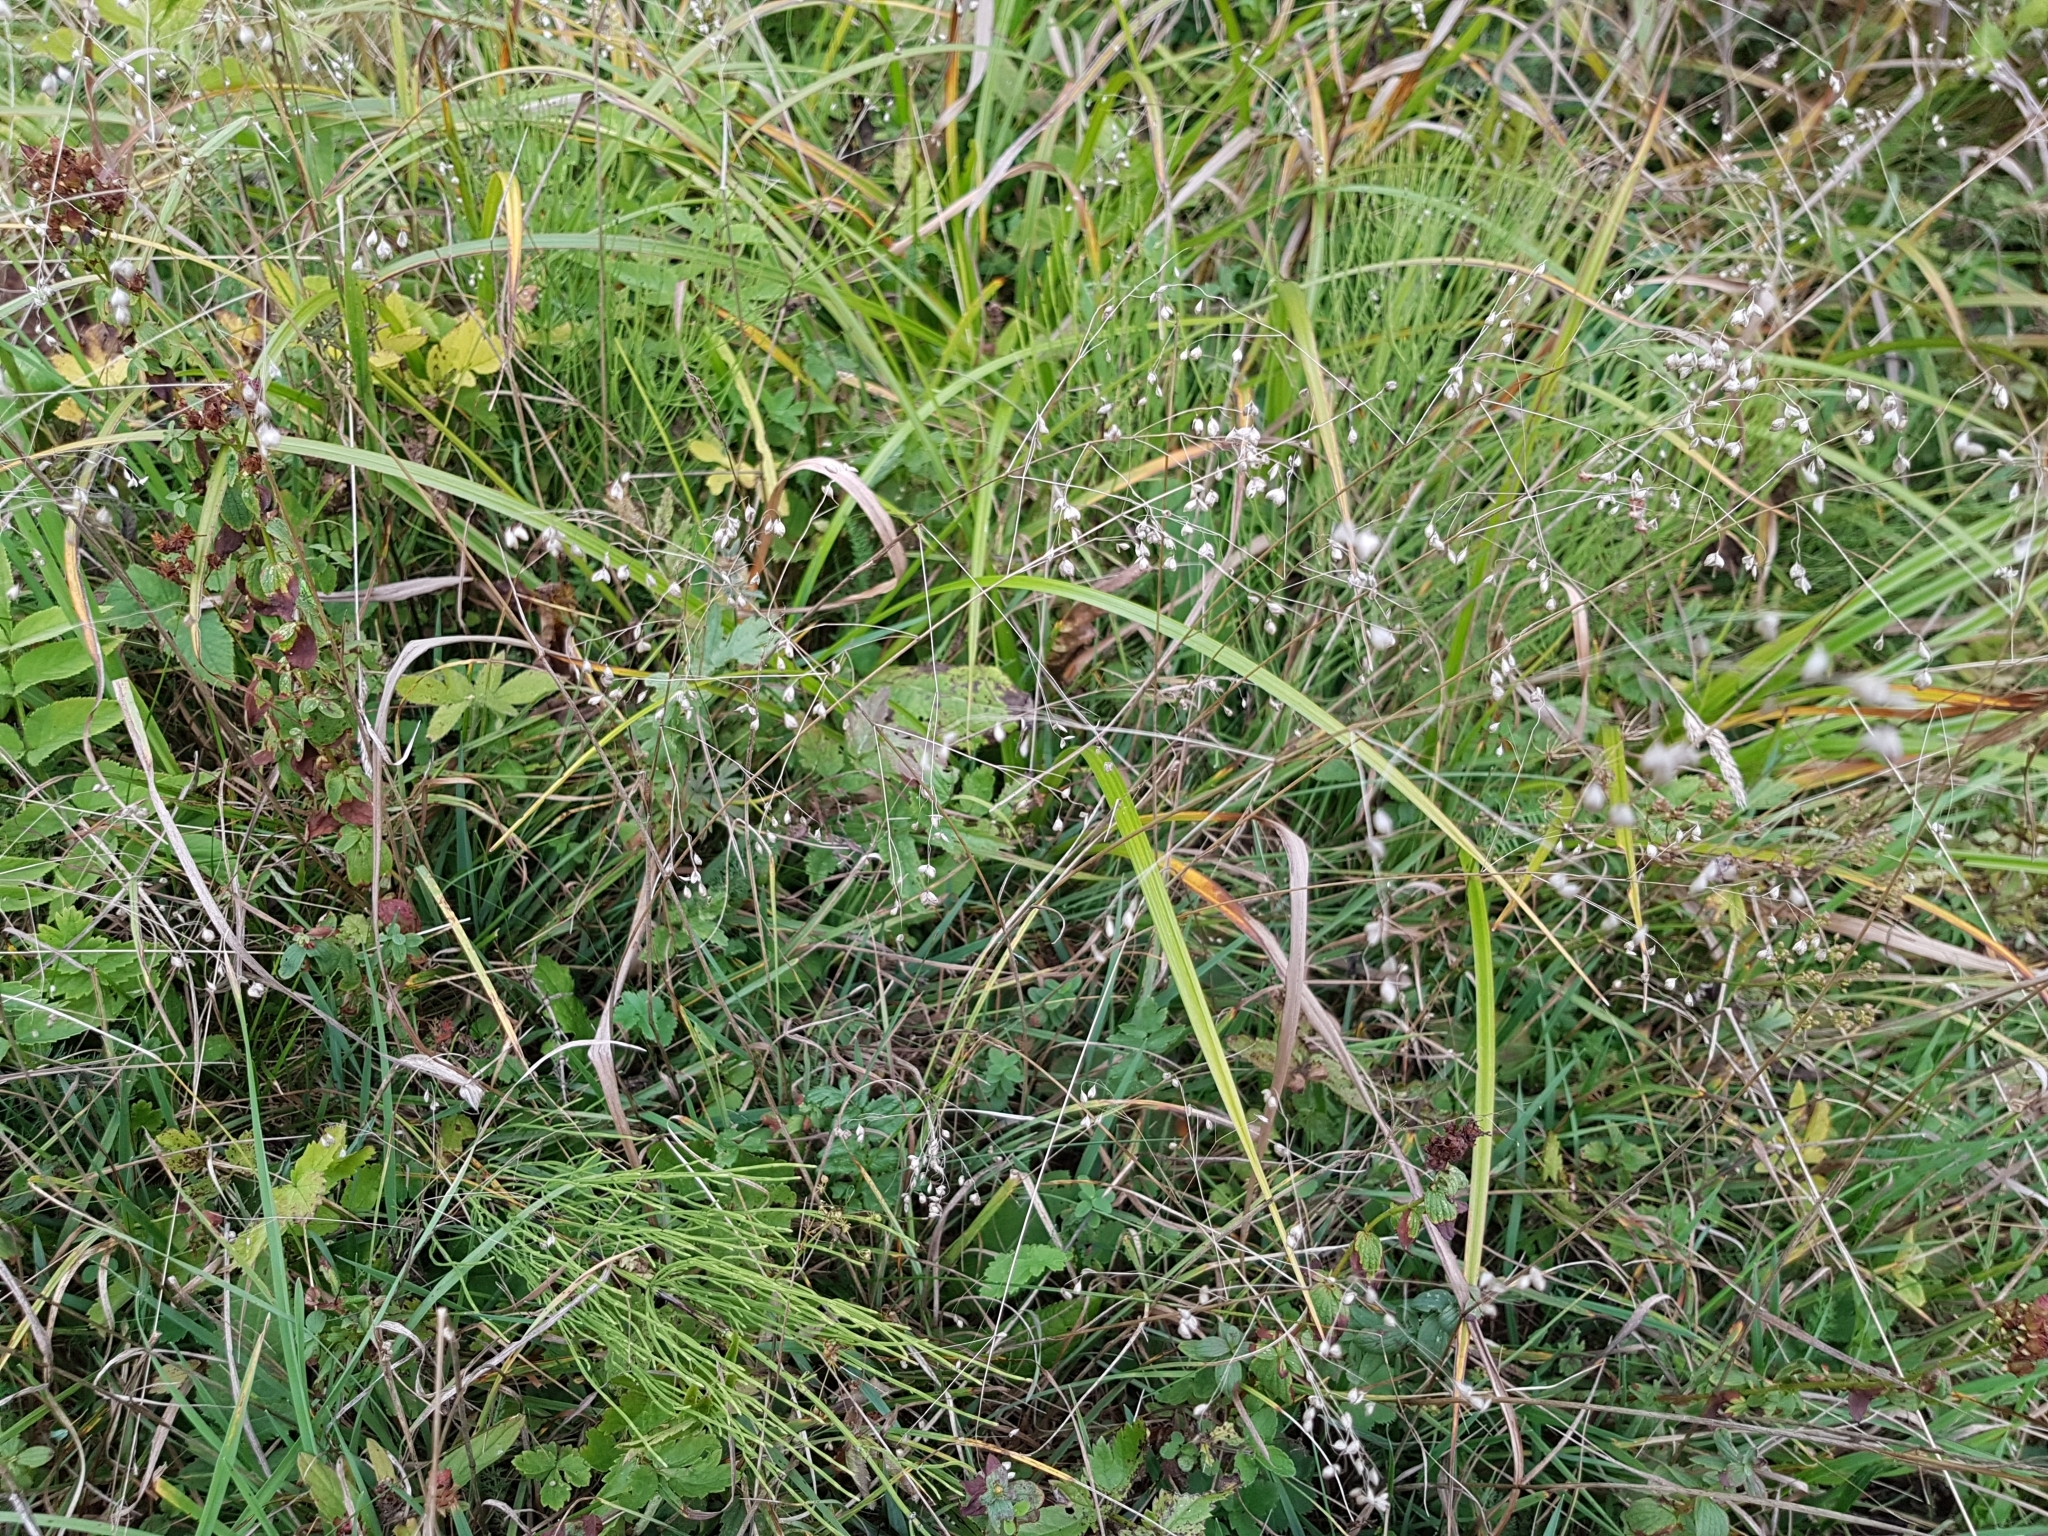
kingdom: Plantae
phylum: Tracheophyta
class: Liliopsida
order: Poales
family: Poaceae
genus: Briza
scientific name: Briza media
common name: Quaking grass
